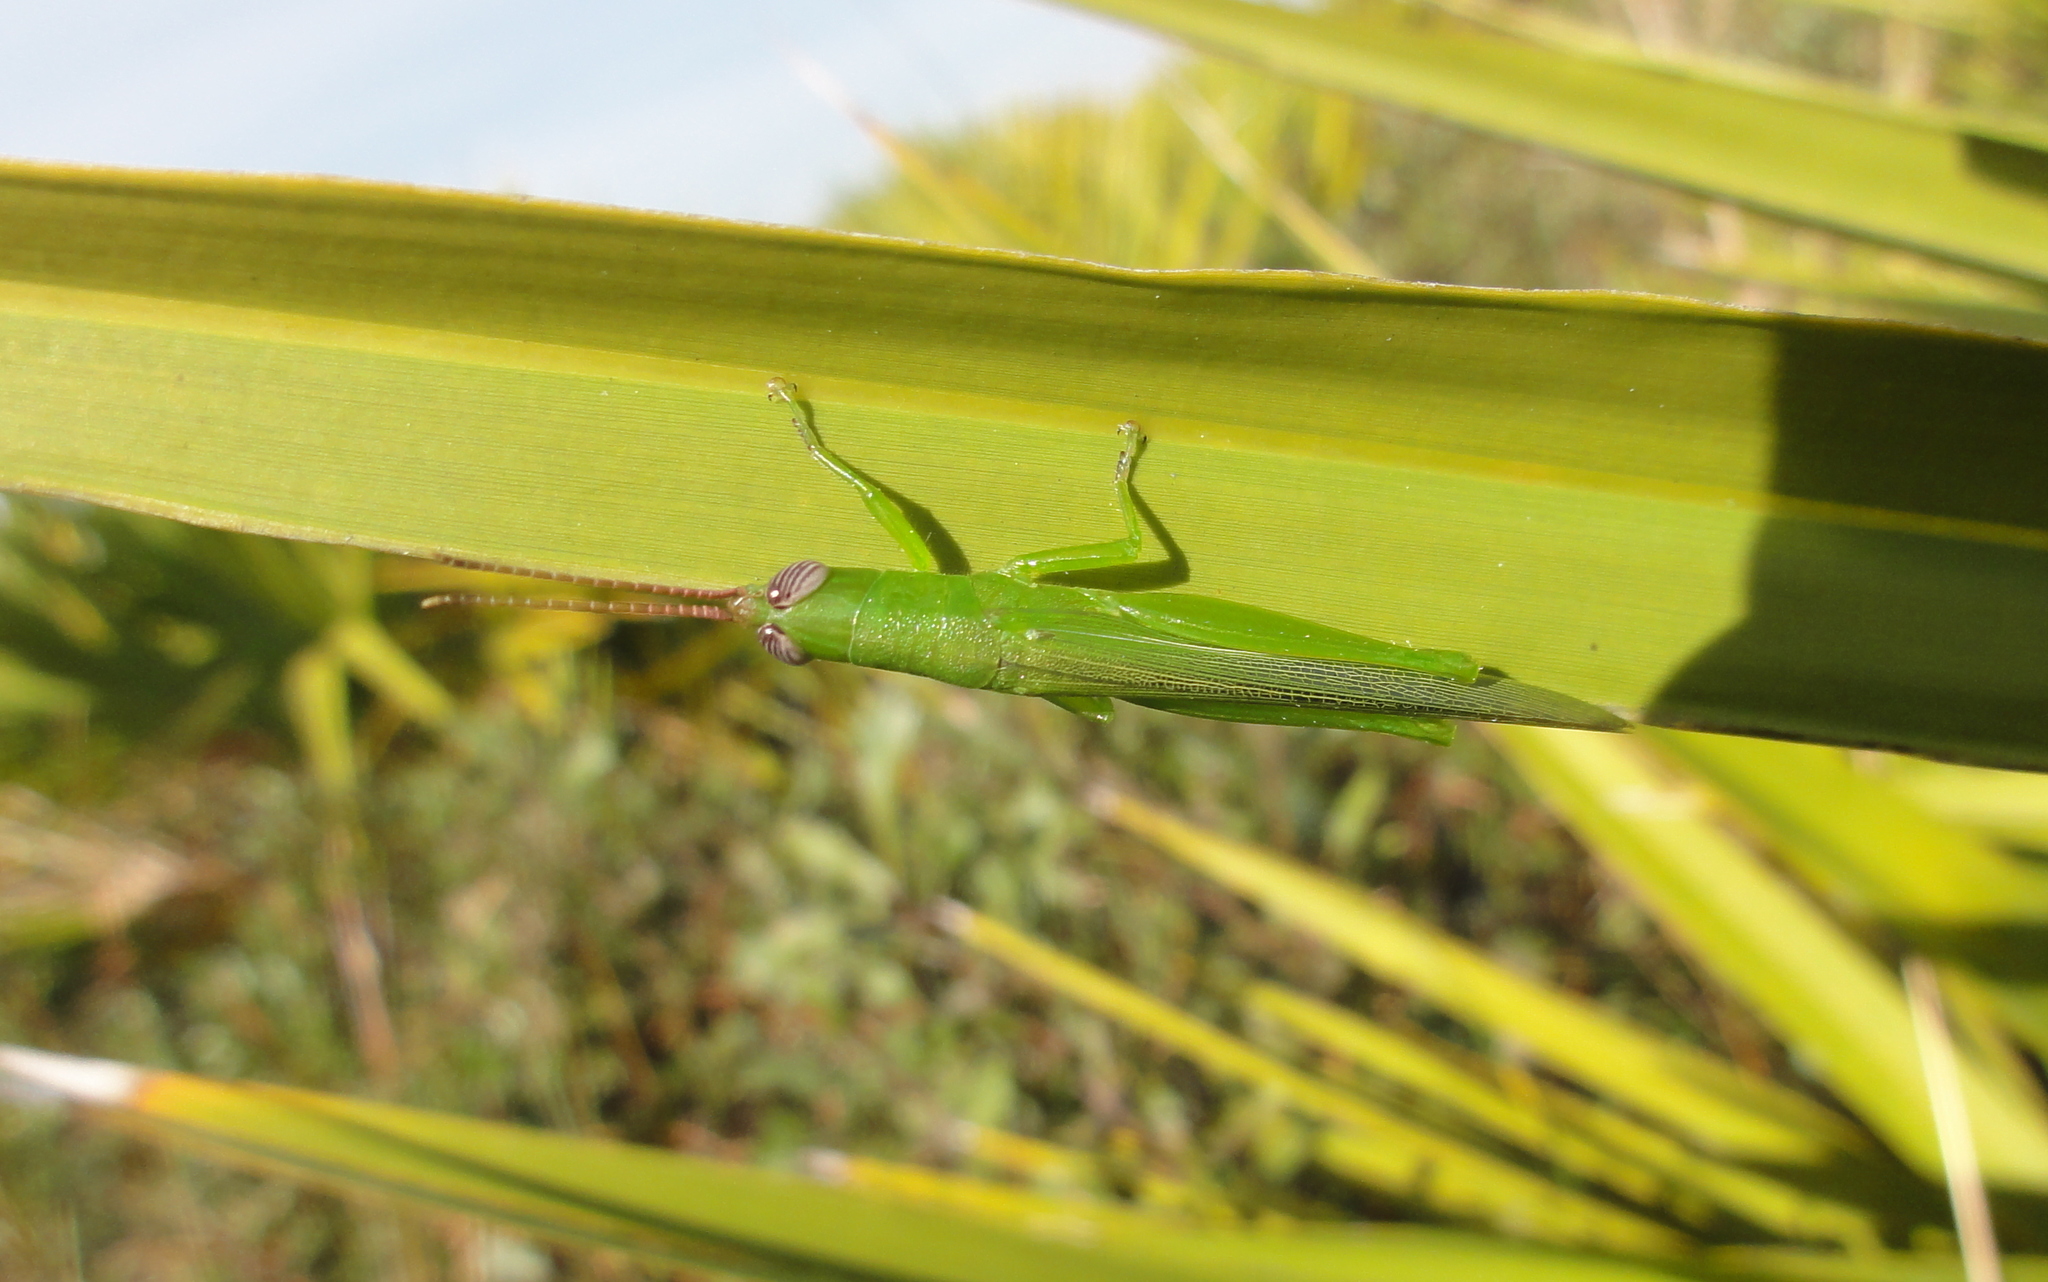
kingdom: Animalia
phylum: Arthropoda
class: Insecta
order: Orthoptera
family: Acrididae
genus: Stenacris
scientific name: Stenacris vitreipennis
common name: Glassy-winged toothpick grasshopper
